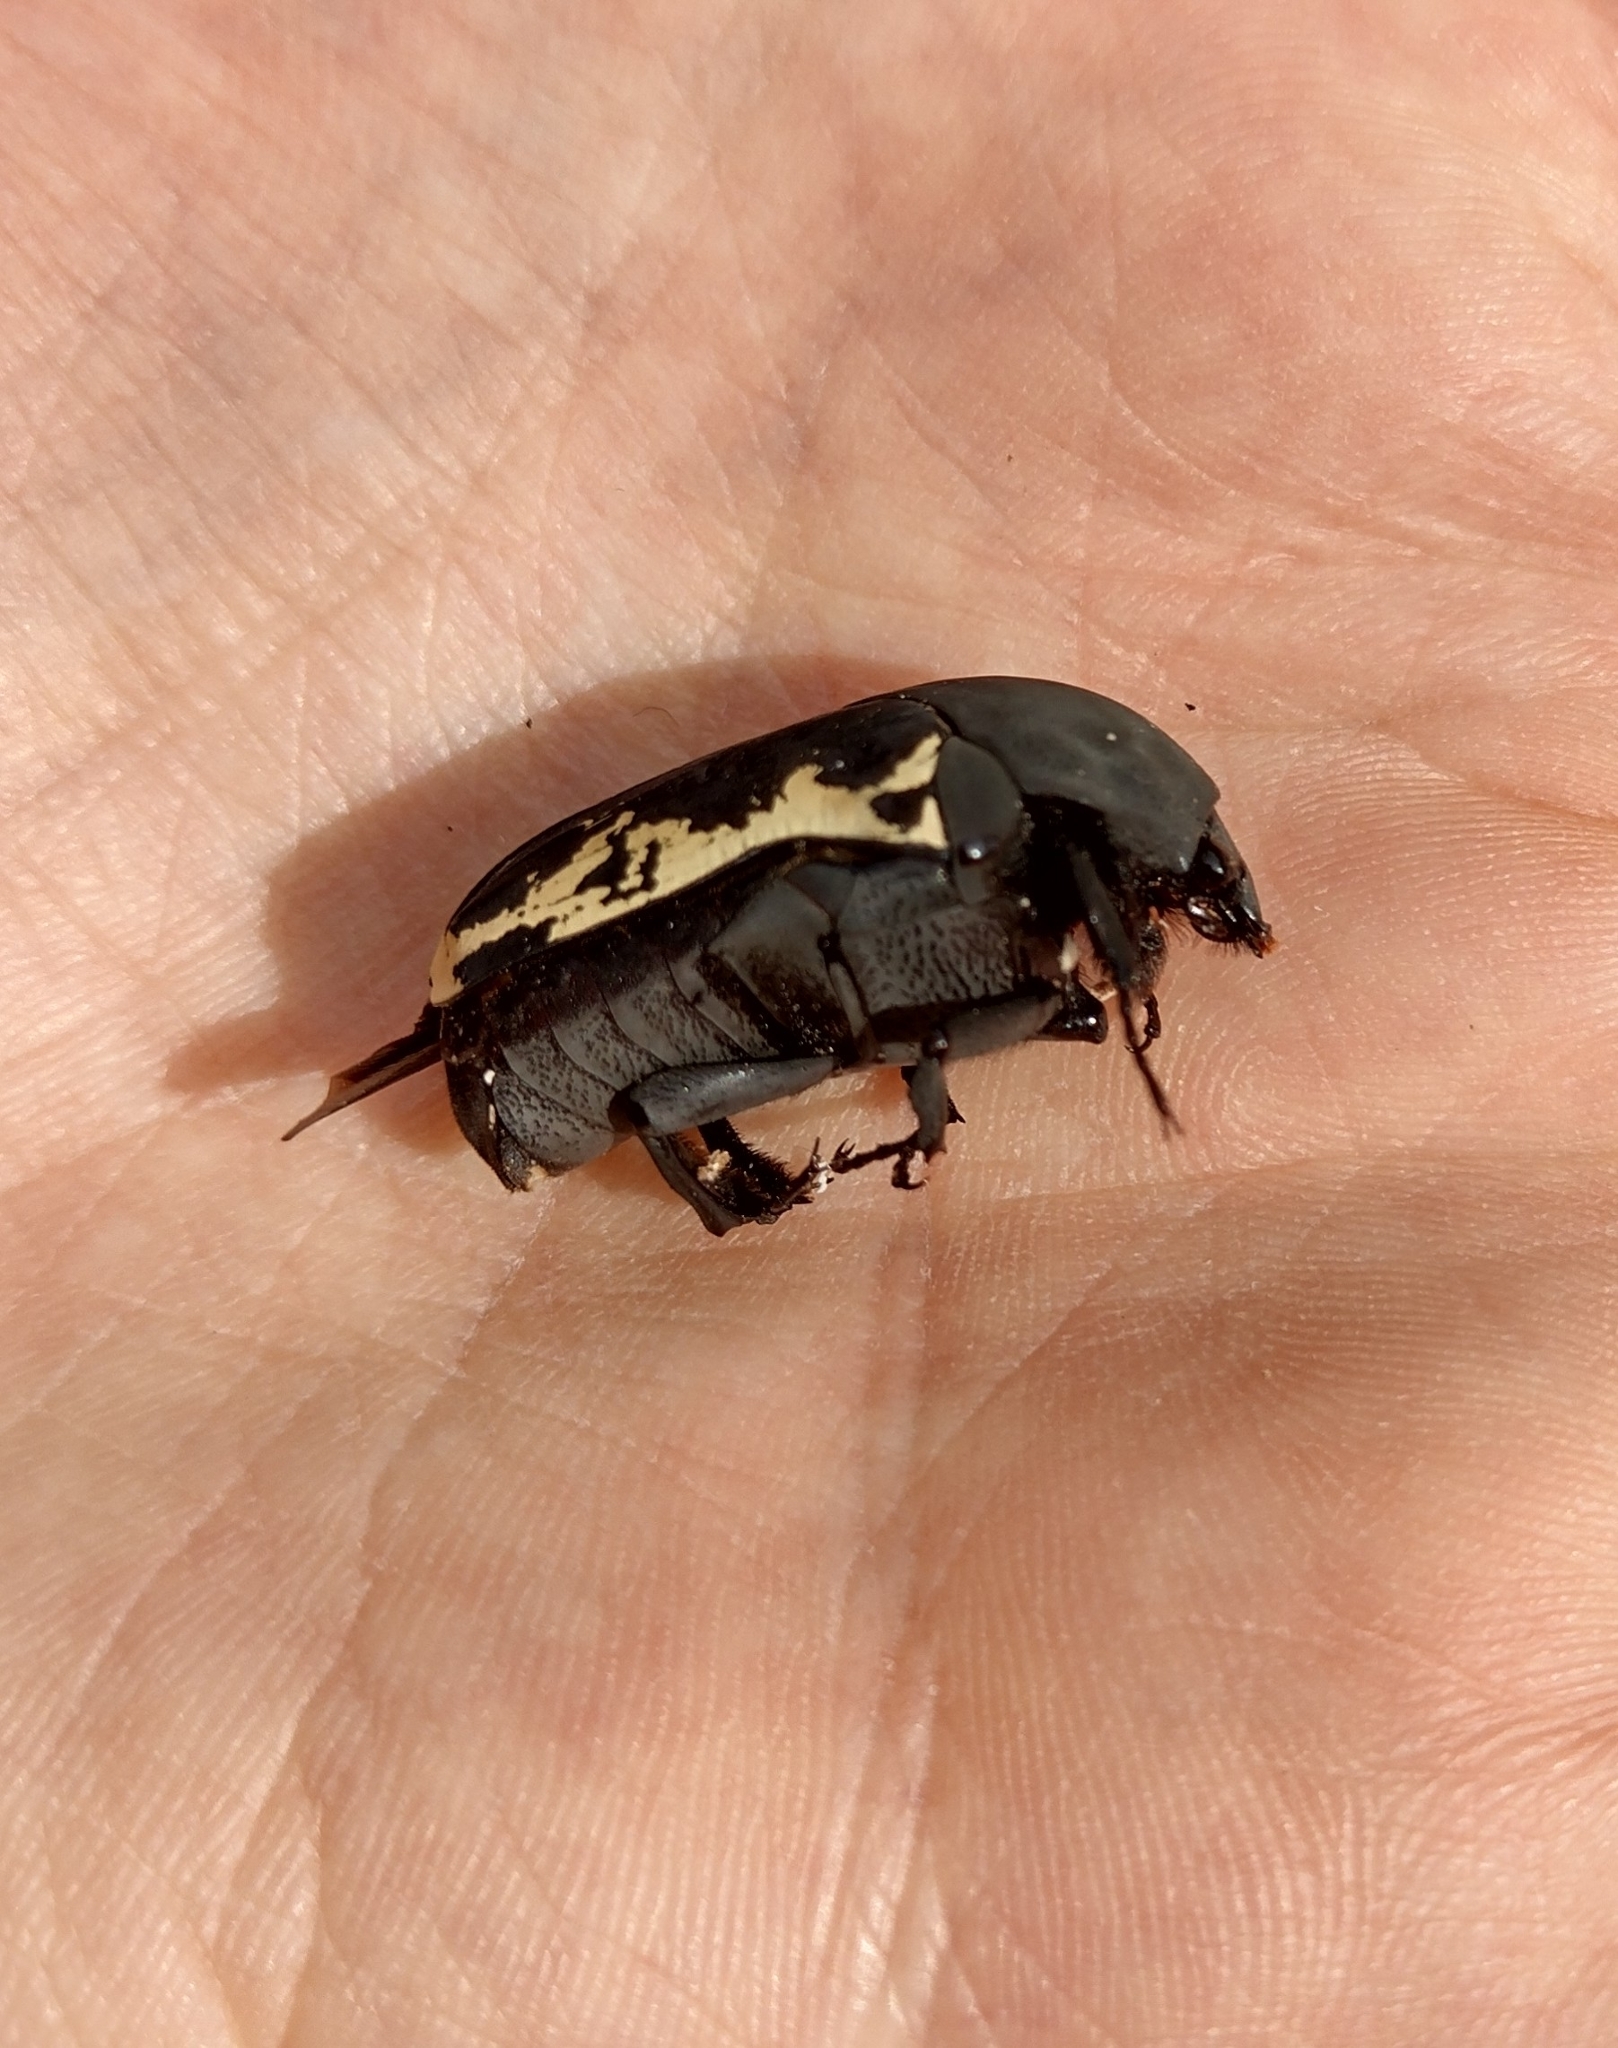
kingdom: Animalia
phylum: Arthropoda
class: Insecta
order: Coleoptera
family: Scarabaeidae
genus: Gymnetis
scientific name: Gymnetis pudibunda
